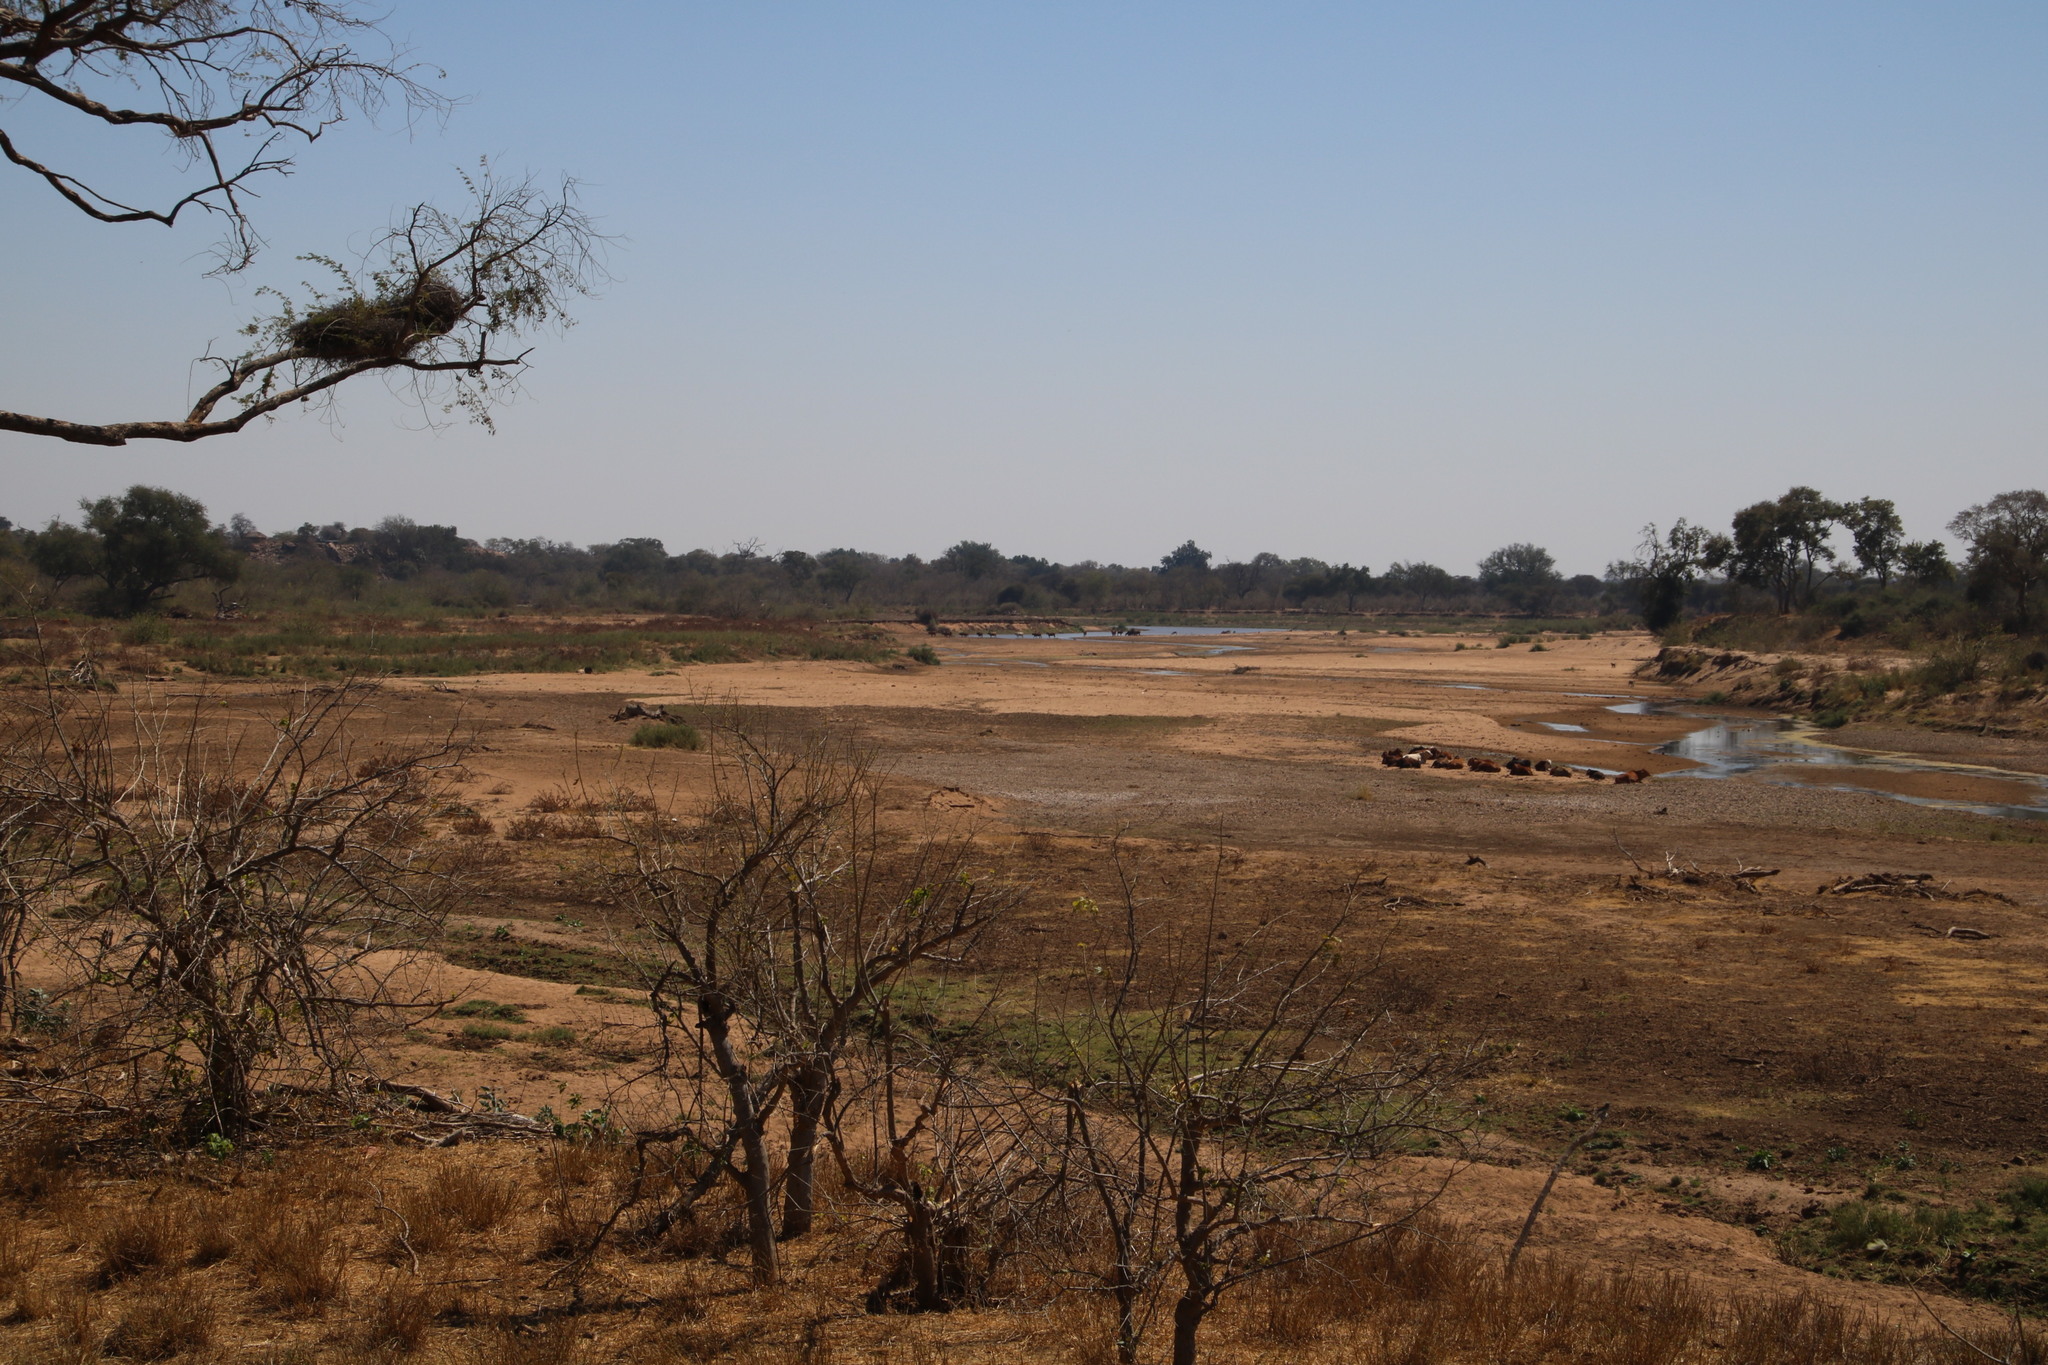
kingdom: Animalia
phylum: Chordata
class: Mammalia
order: Artiodactyla
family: Bovidae
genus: Bos
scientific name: Bos taurus
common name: Domesticated cattle
